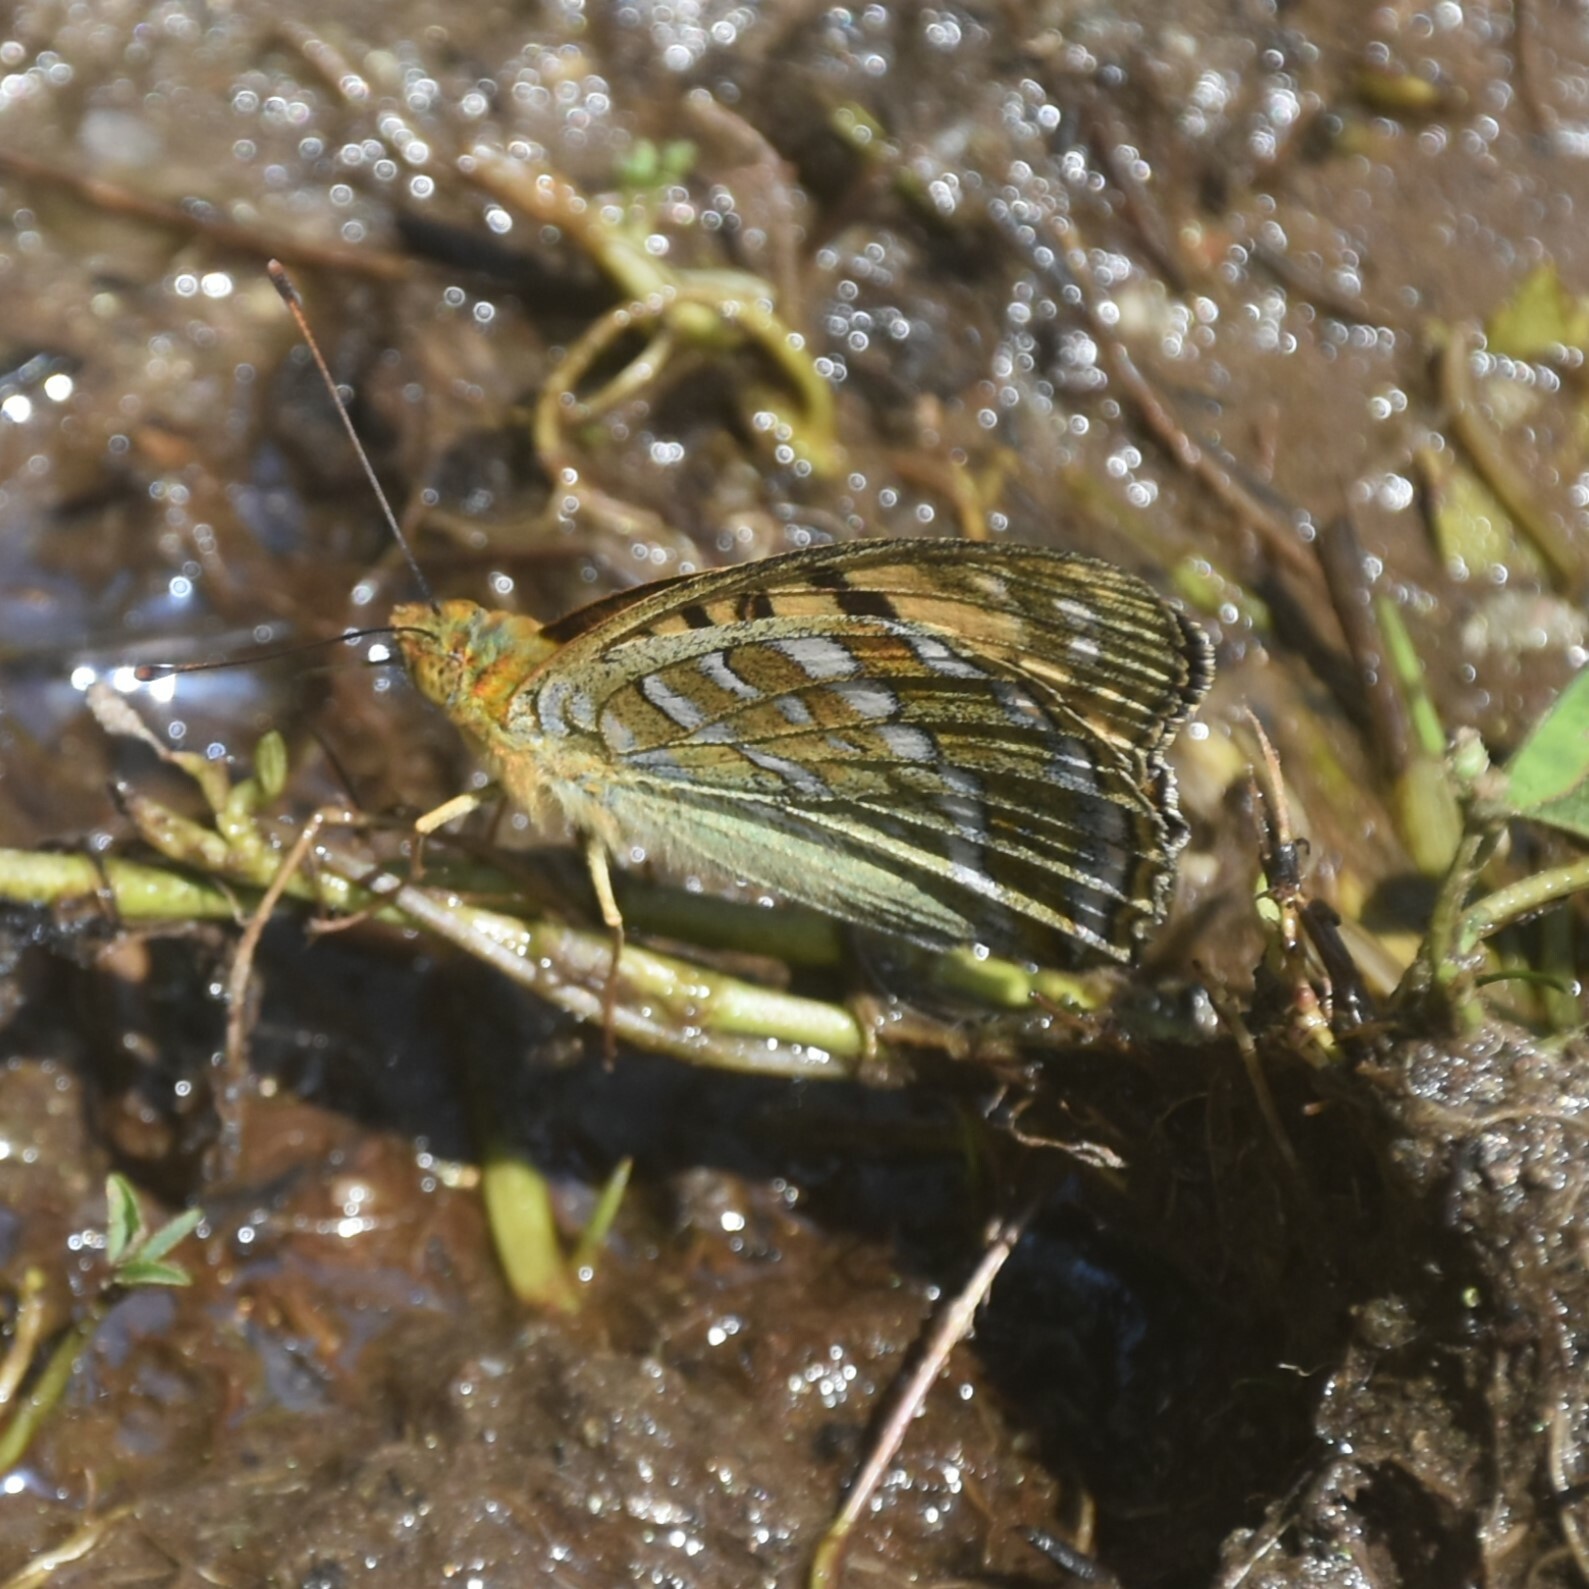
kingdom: Animalia
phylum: Arthropoda
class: Insecta
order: Lepidoptera
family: Nymphalidae
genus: Fabriciana
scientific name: Fabriciana kamala
